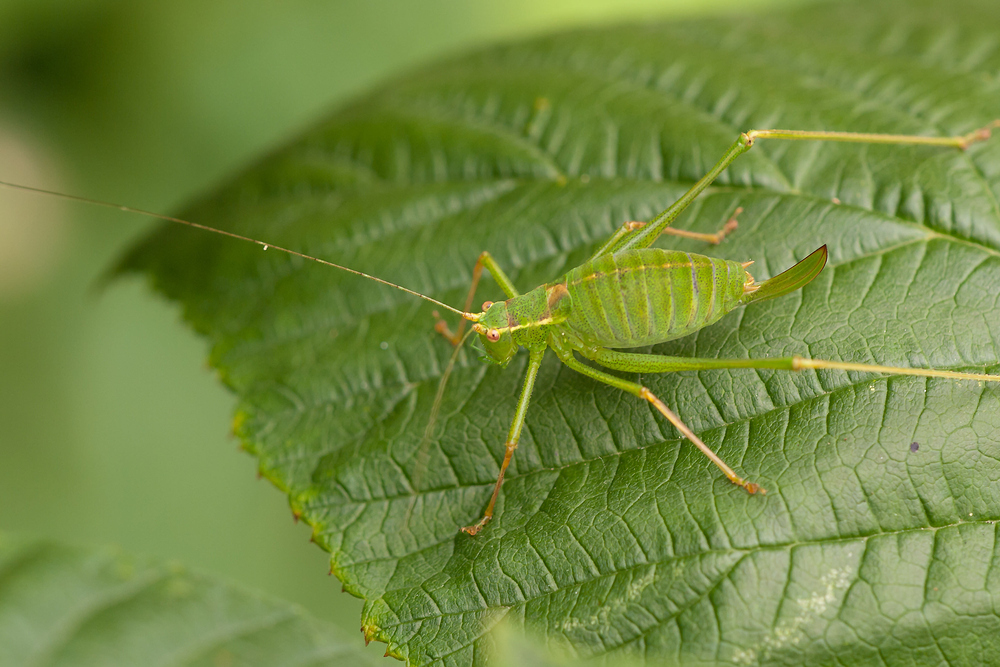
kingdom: Animalia
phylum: Arthropoda
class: Insecta
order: Orthoptera
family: Tettigoniidae
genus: Leptophyes
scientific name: Leptophyes punctatissima
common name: Speckled bush-cricket
